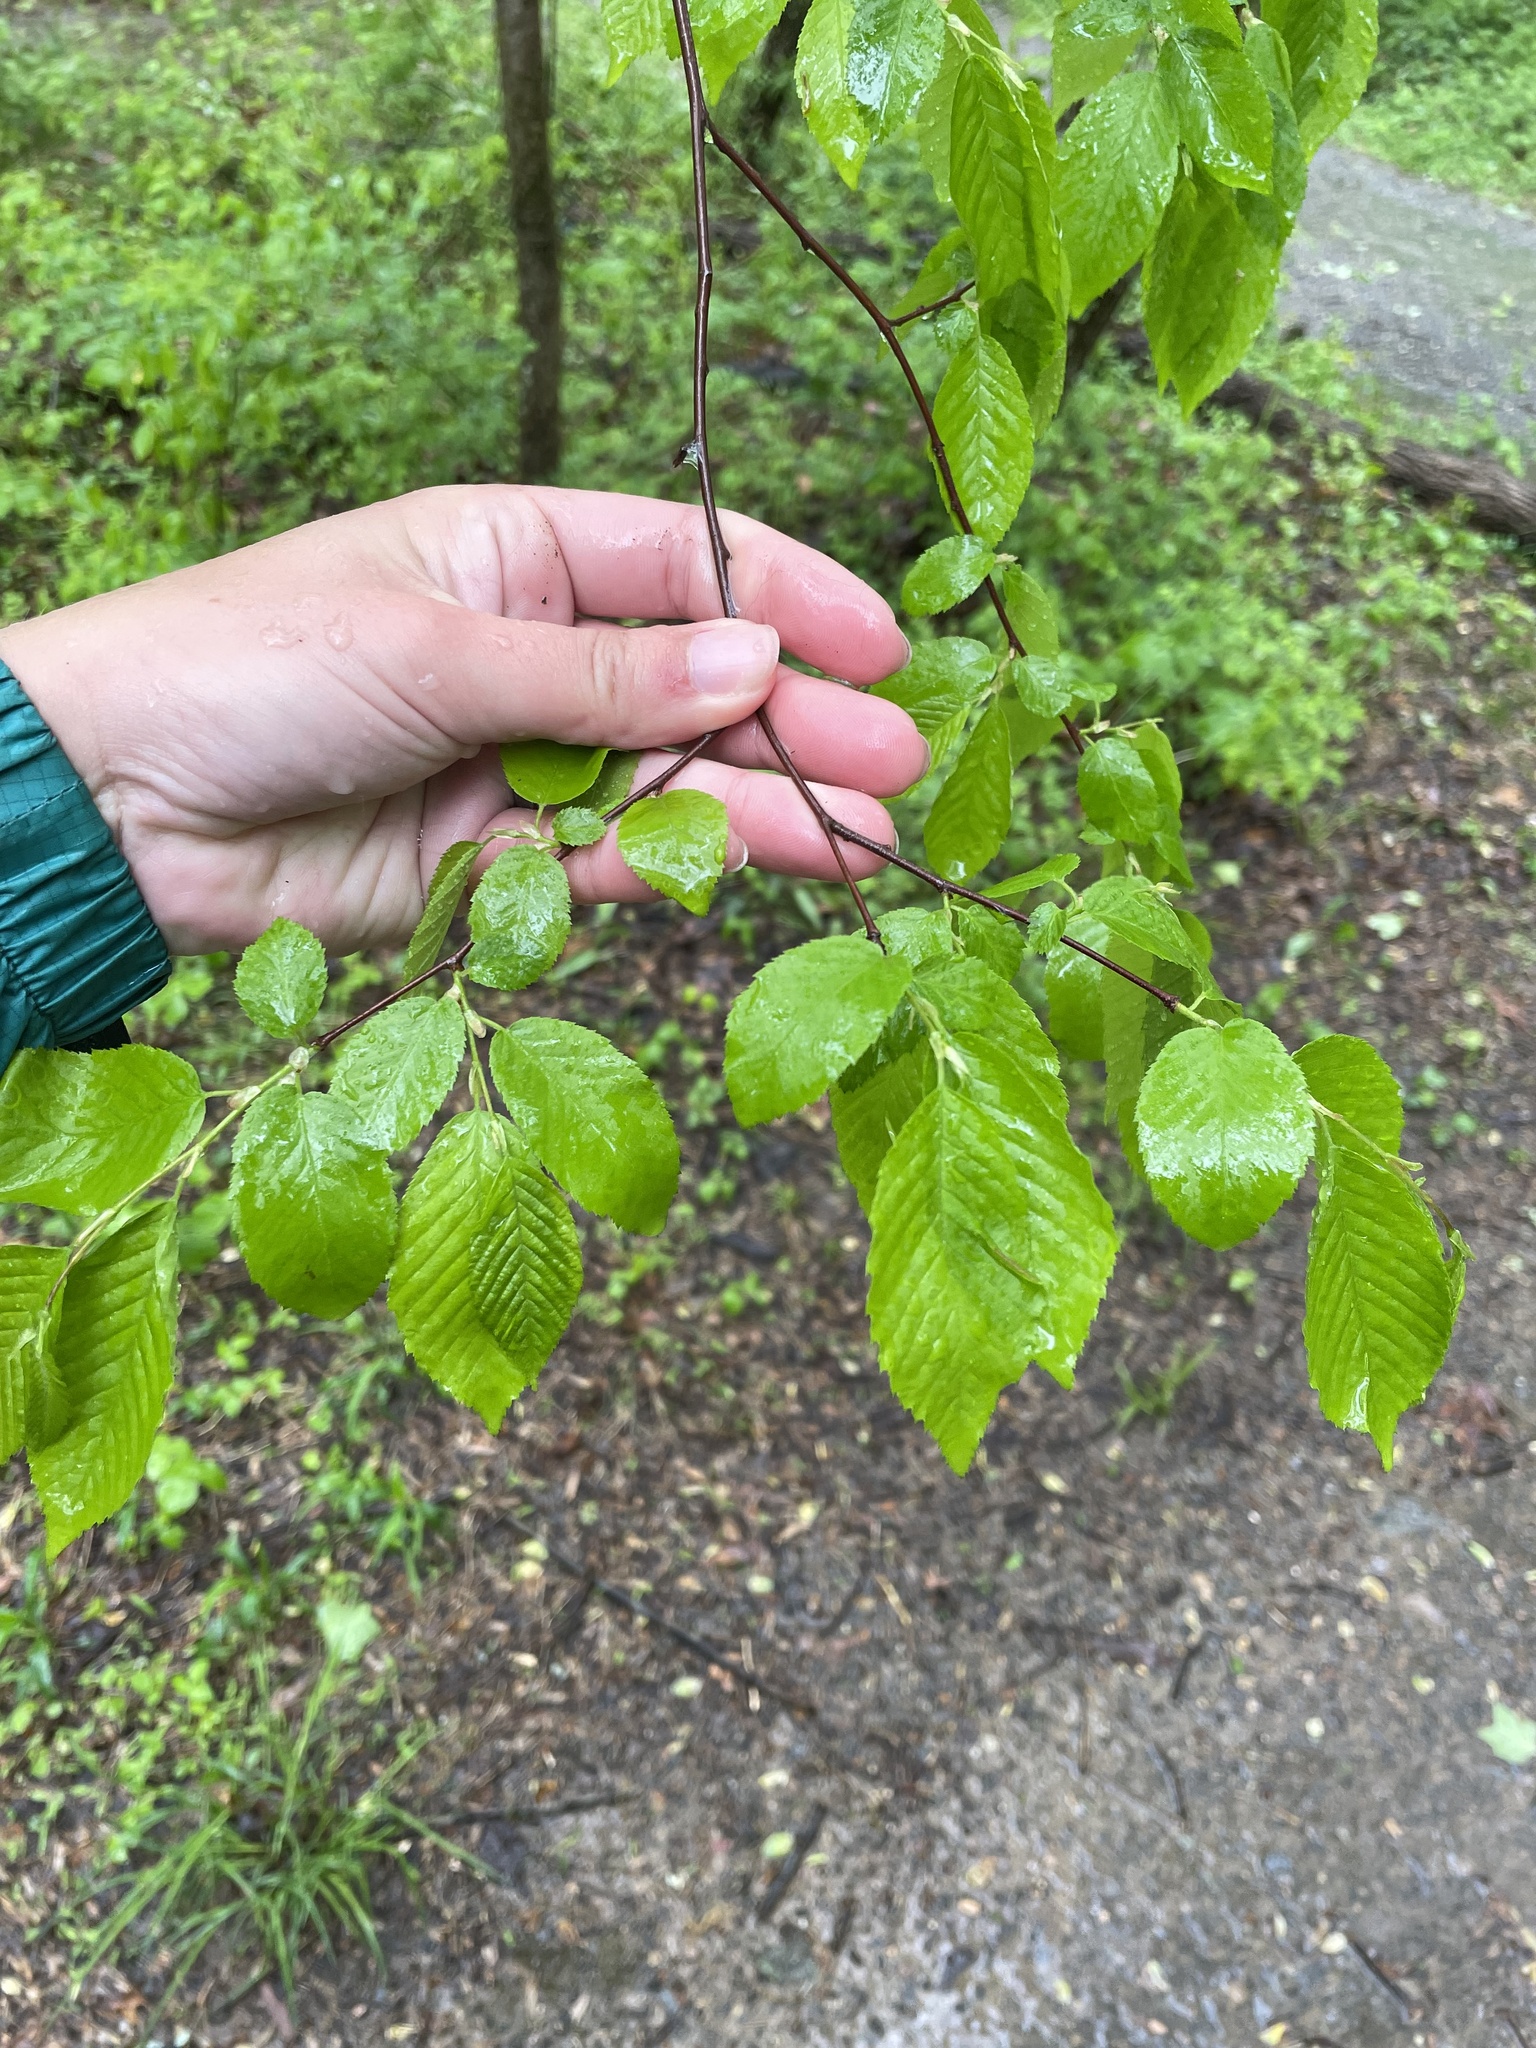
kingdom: Plantae
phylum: Tracheophyta
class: Magnoliopsida
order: Fagales
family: Betulaceae
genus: Carpinus
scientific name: Carpinus caroliniana
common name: American hornbeam
